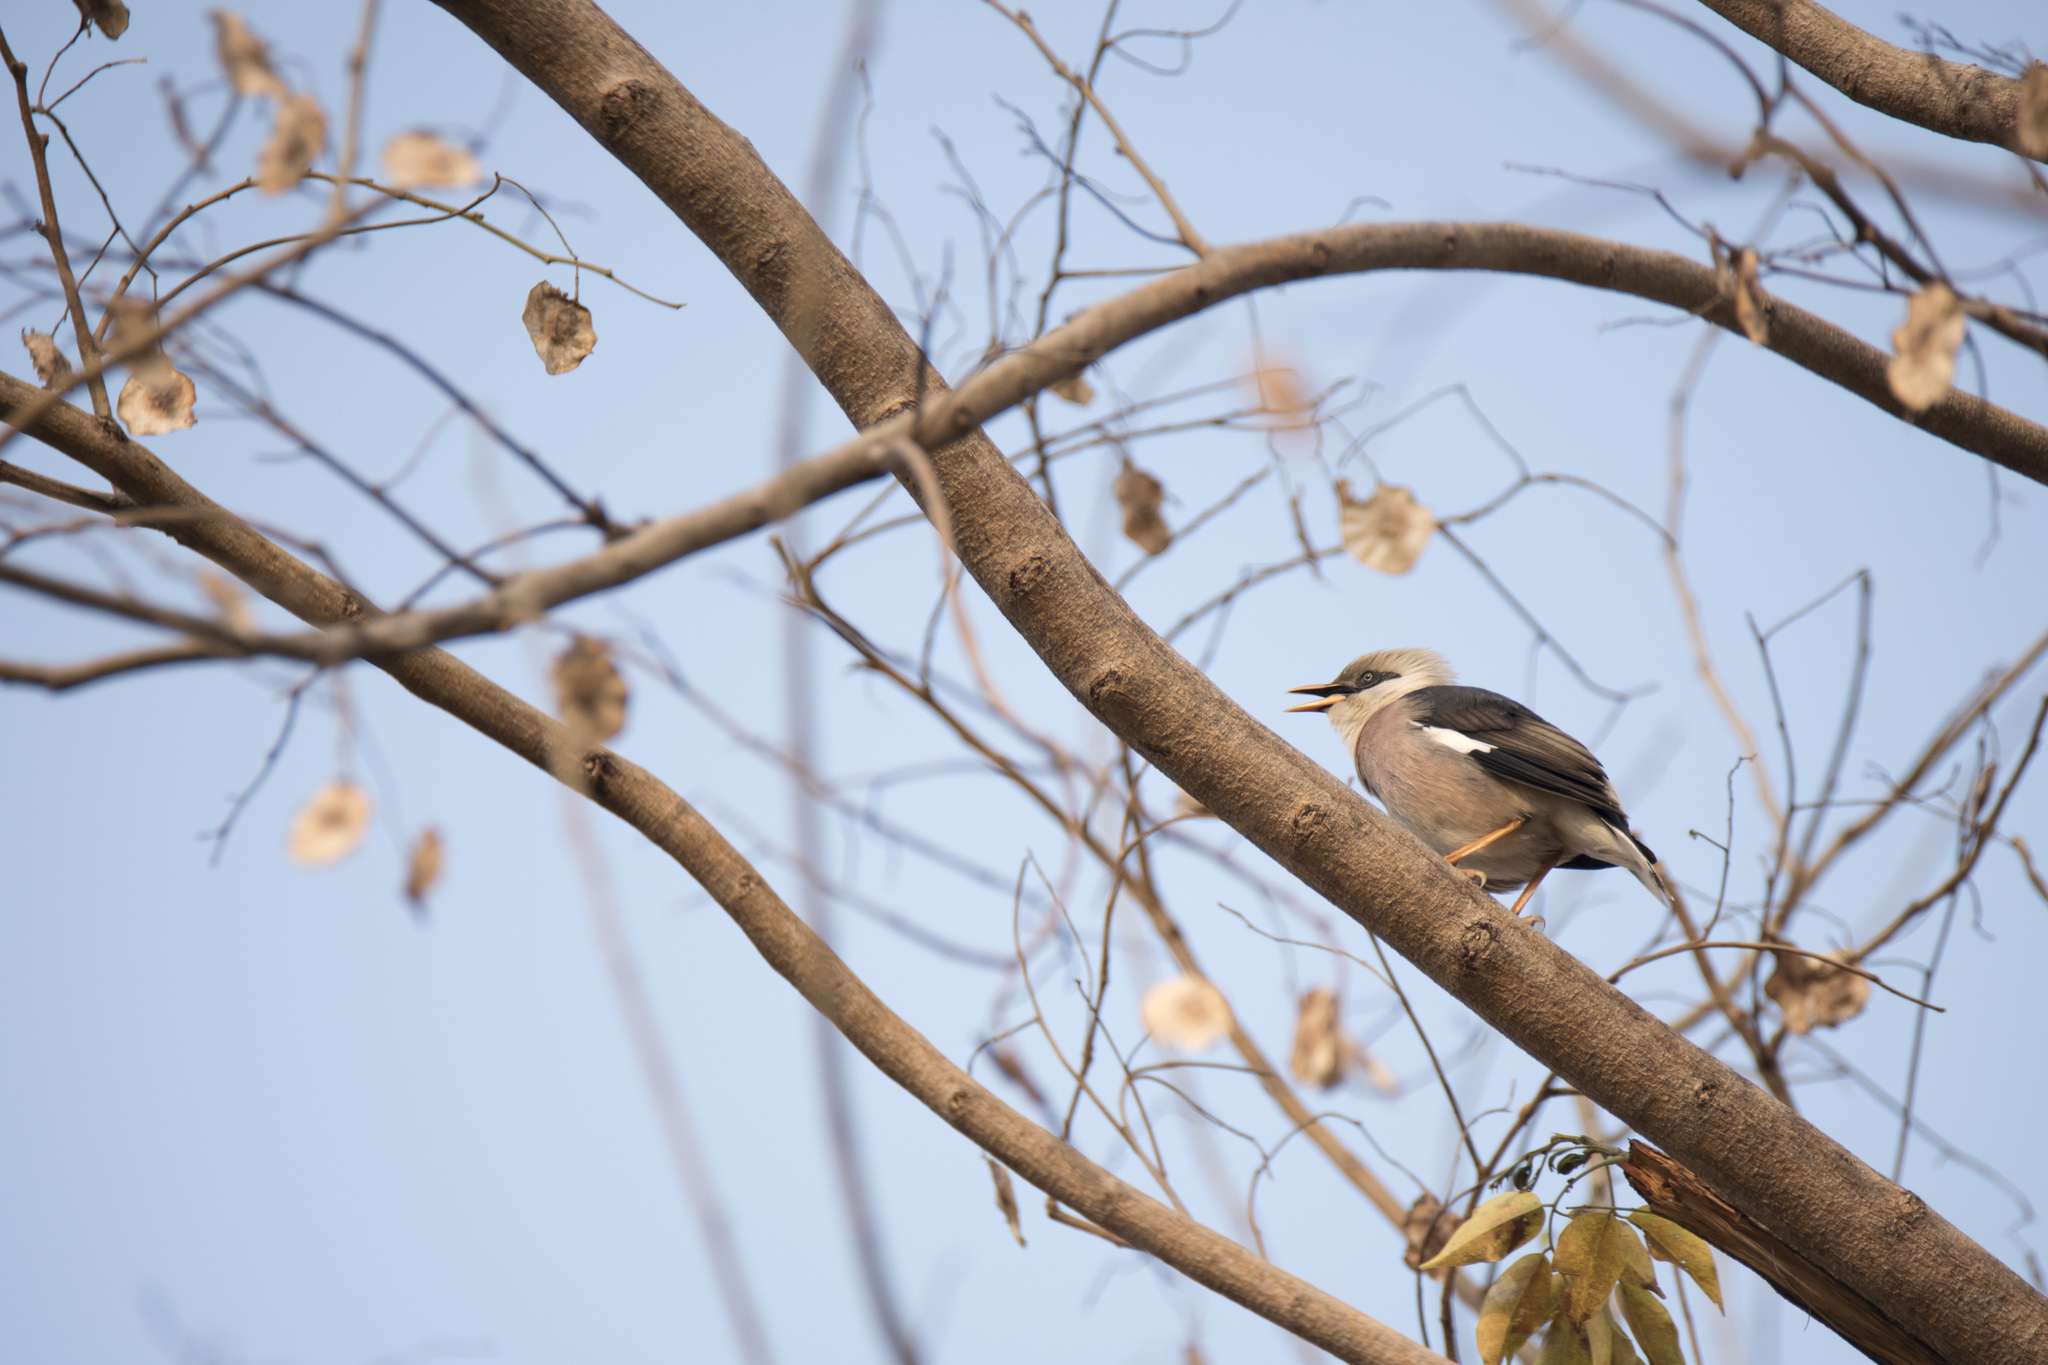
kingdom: Animalia
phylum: Chordata
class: Aves
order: Passeriformes
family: Sturnidae
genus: Acridotheres
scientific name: Acridotheres leucocephalus
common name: Vinous-breasted myna
